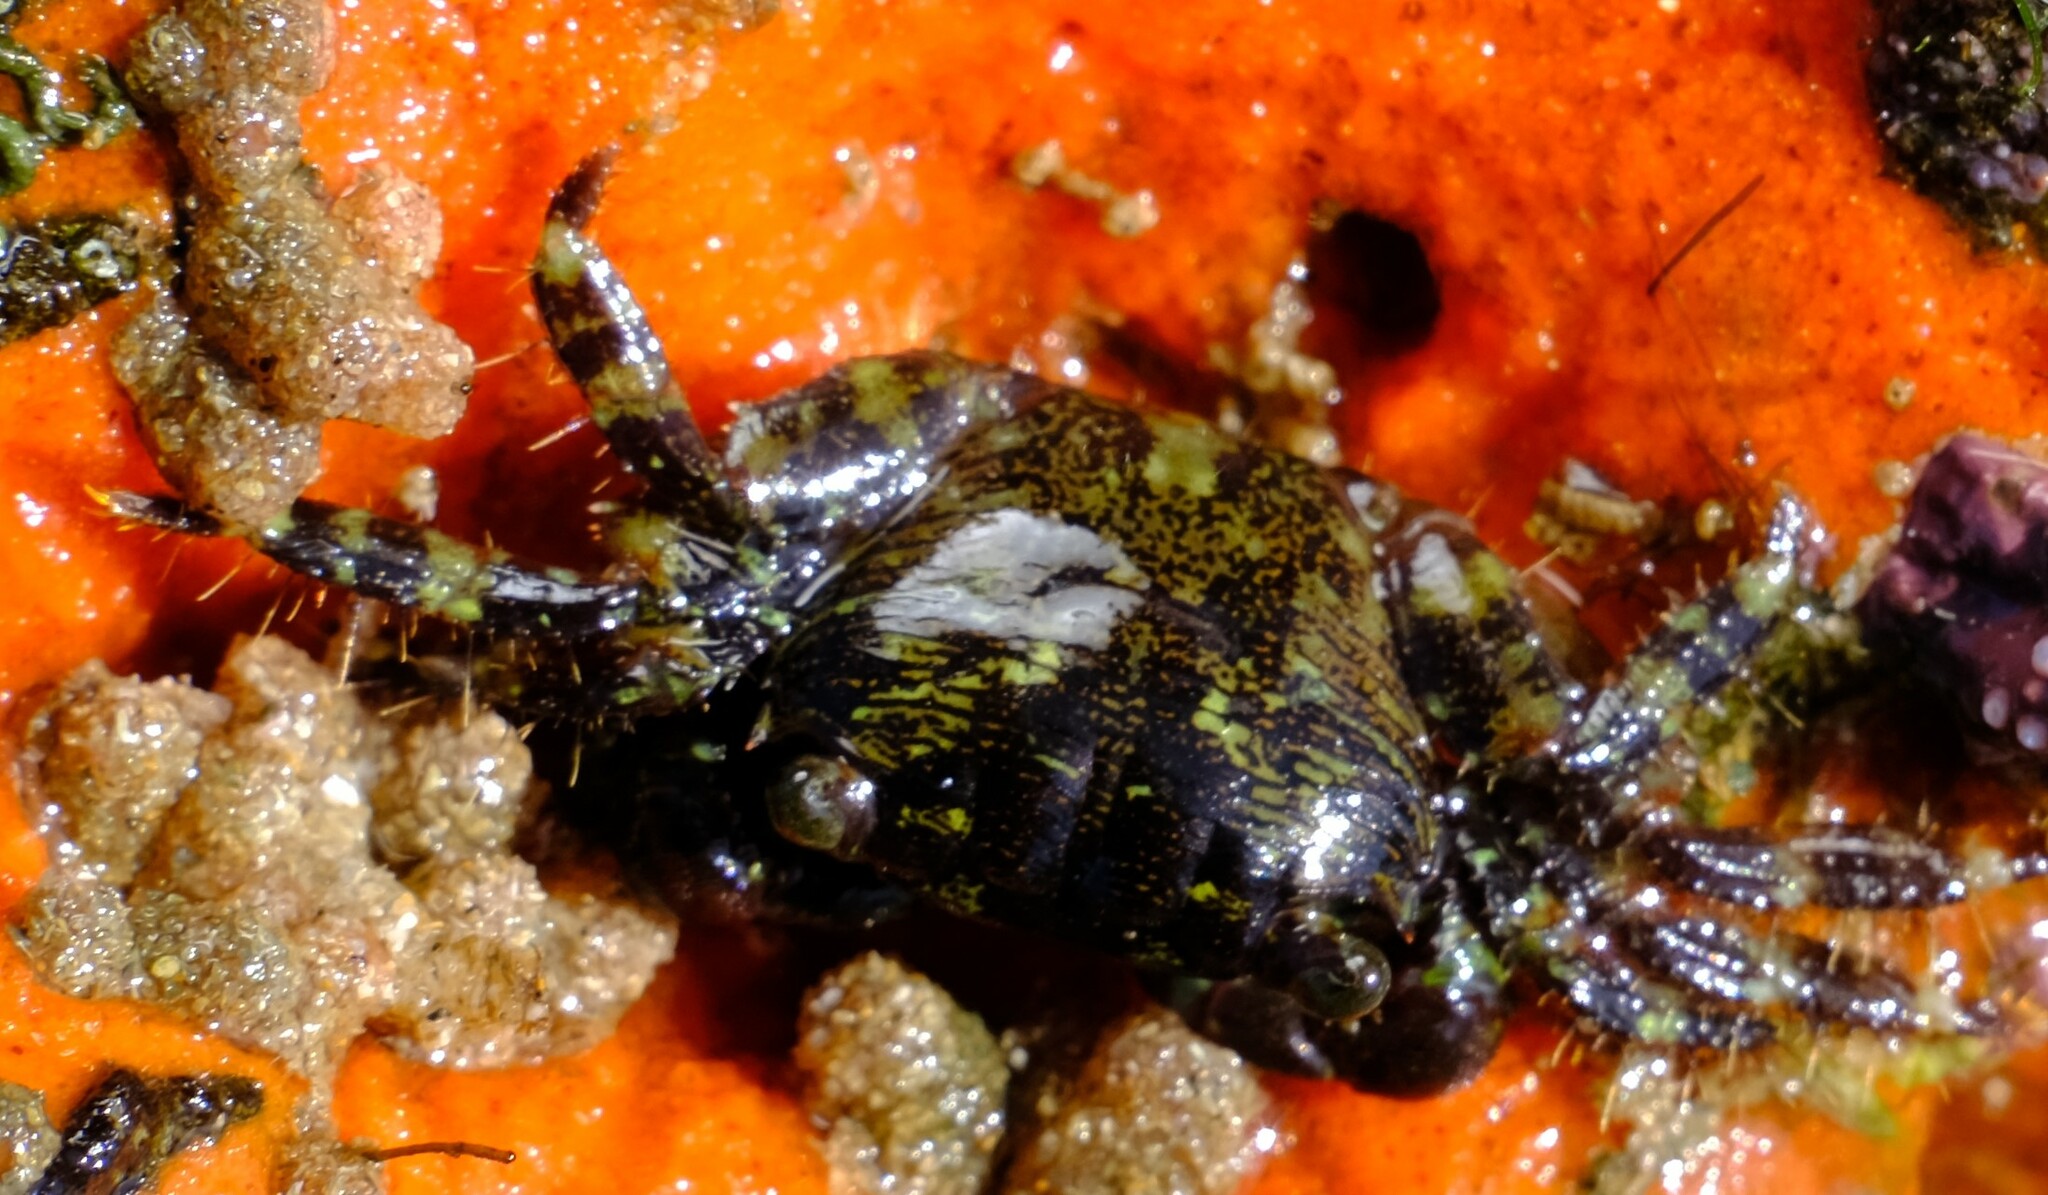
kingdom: Animalia
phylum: Arthropoda
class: Malacostraca
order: Decapoda
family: Grapsidae
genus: Leptograpsus
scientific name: Leptograpsus variegatus
